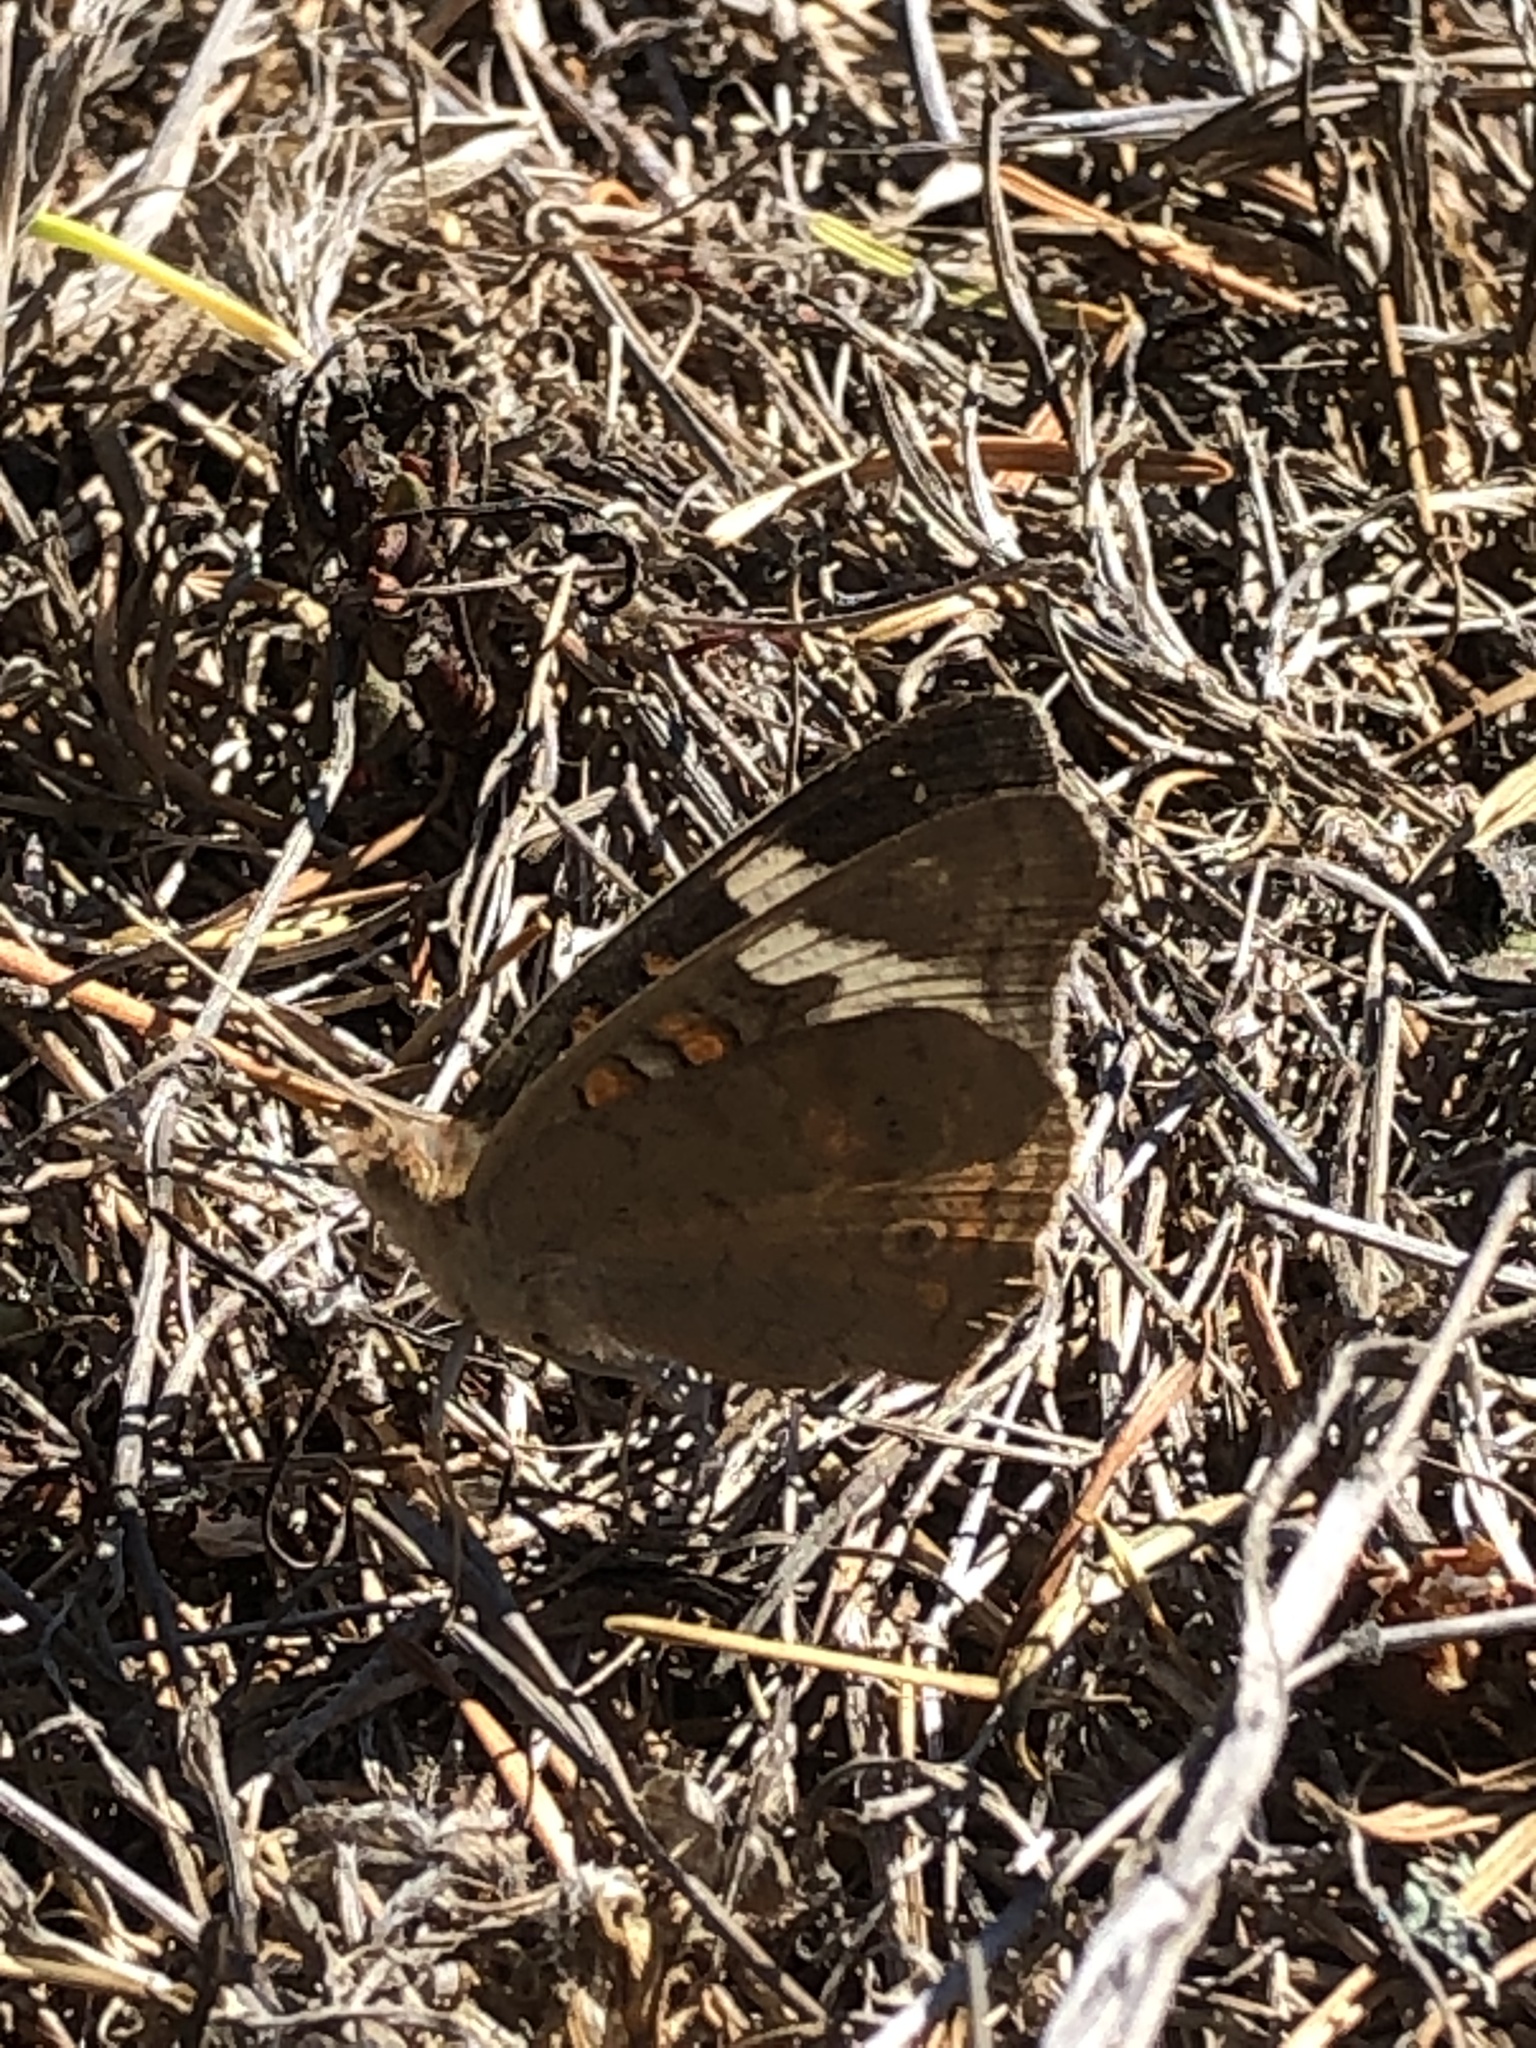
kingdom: Animalia
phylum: Arthropoda
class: Insecta
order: Lepidoptera
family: Nymphalidae
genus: Junonia
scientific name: Junonia grisea
